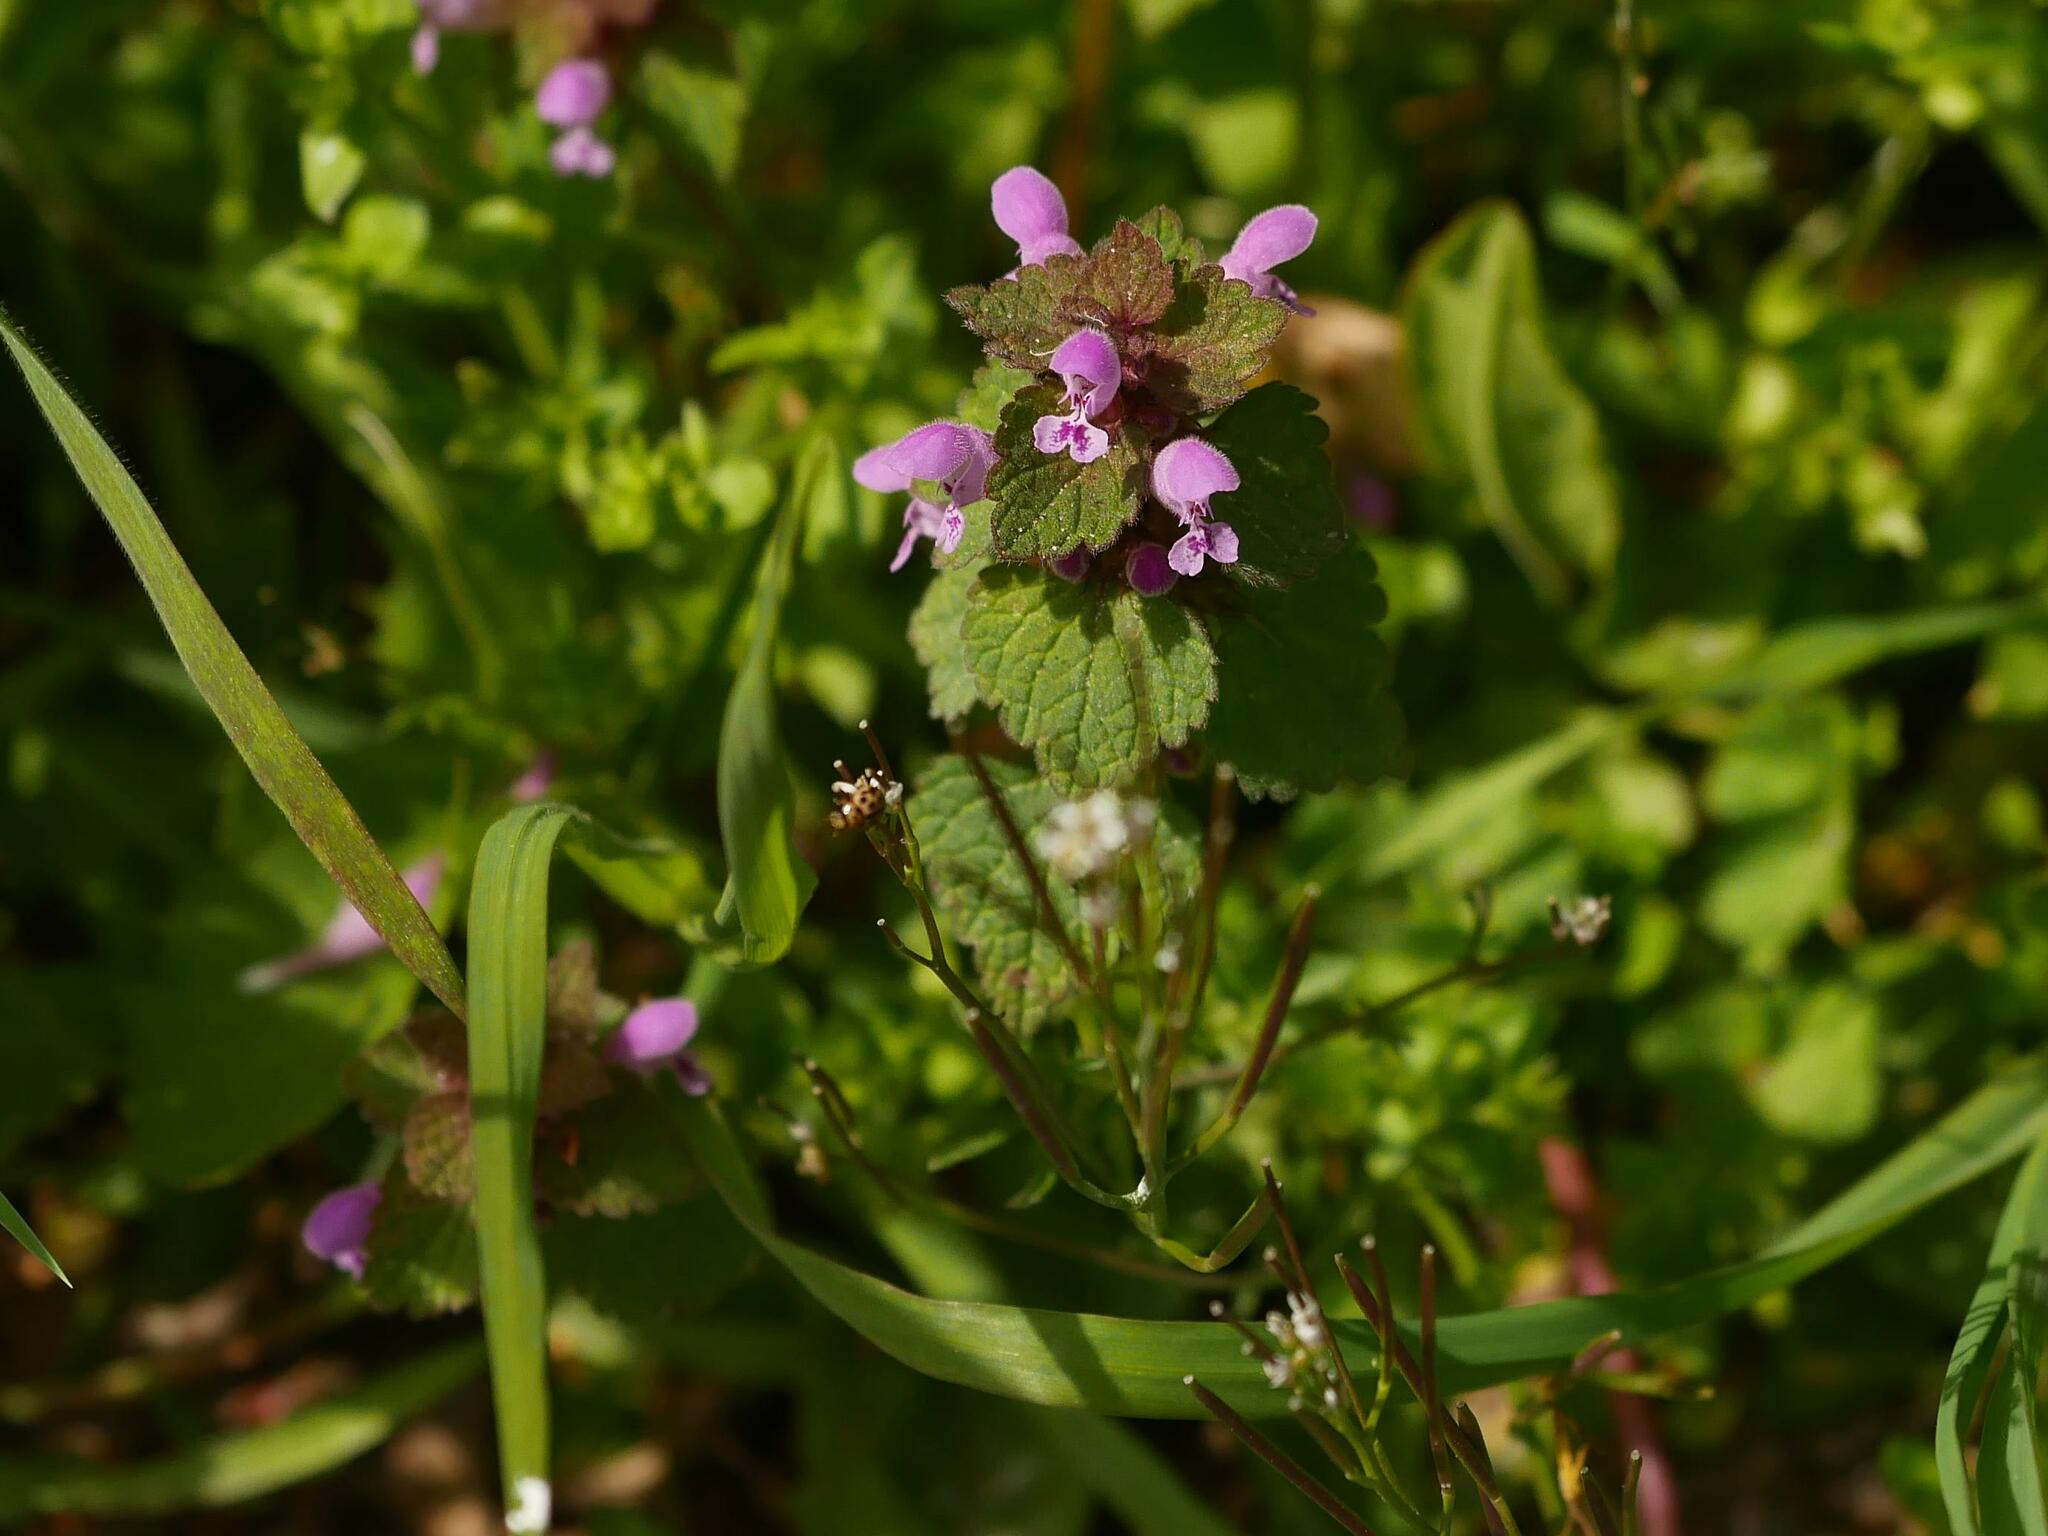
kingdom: Plantae
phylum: Tracheophyta
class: Magnoliopsida
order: Lamiales
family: Lamiaceae
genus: Lamium
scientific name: Lamium purpureum
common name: Red dead-nettle
